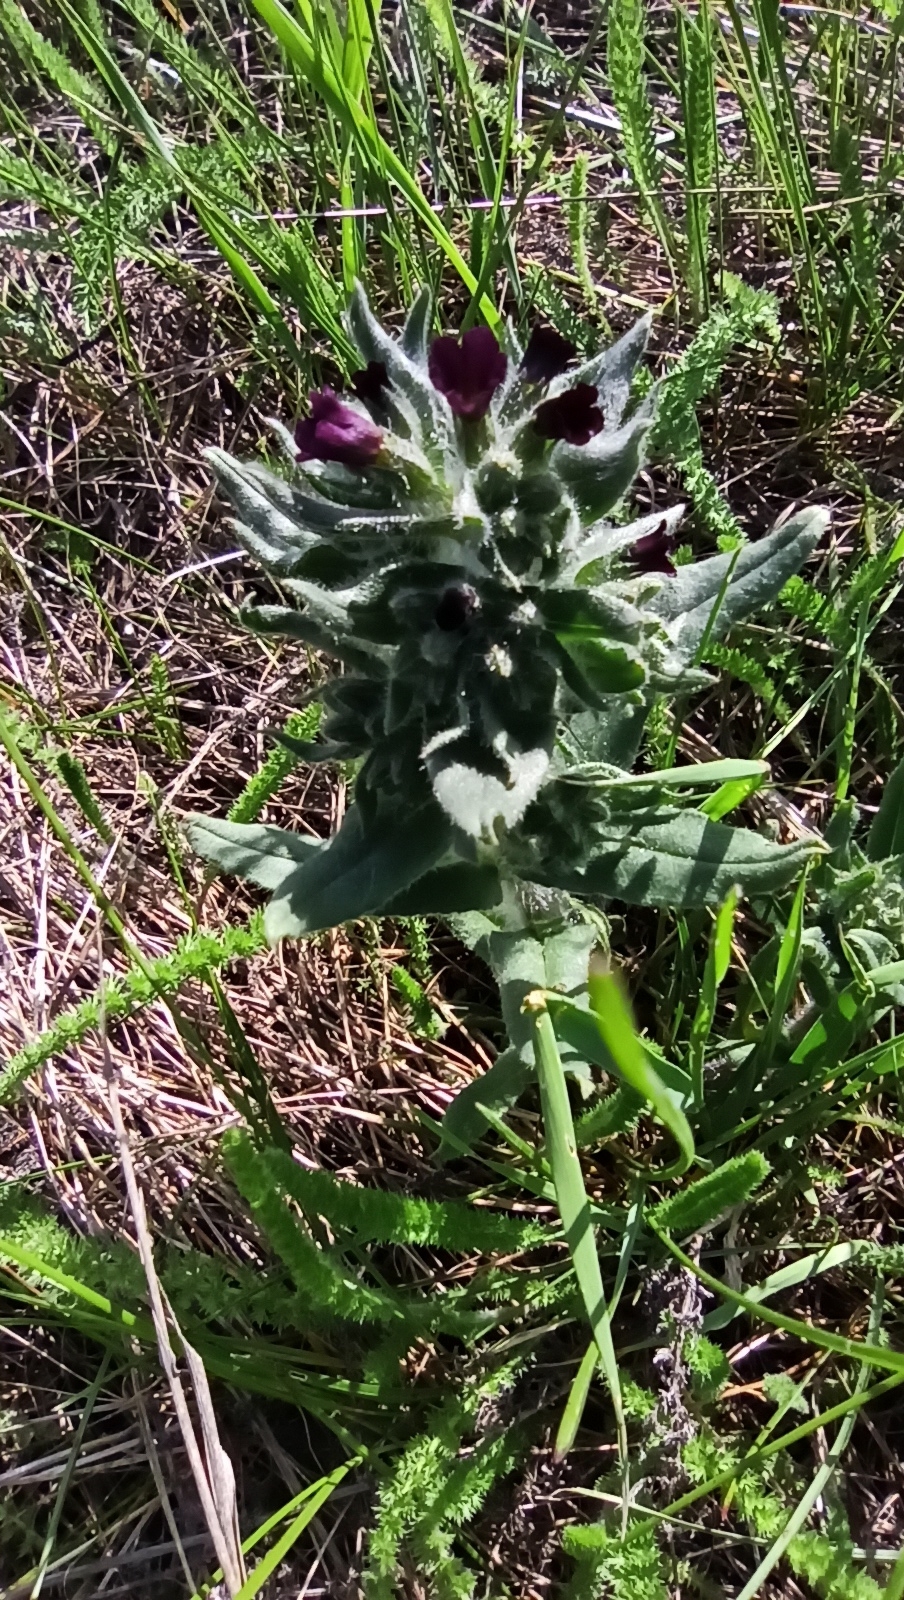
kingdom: Plantae
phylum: Tracheophyta
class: Magnoliopsida
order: Boraginales
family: Boraginaceae
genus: Nonea
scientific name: Nonea pulla
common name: Brown nonea
